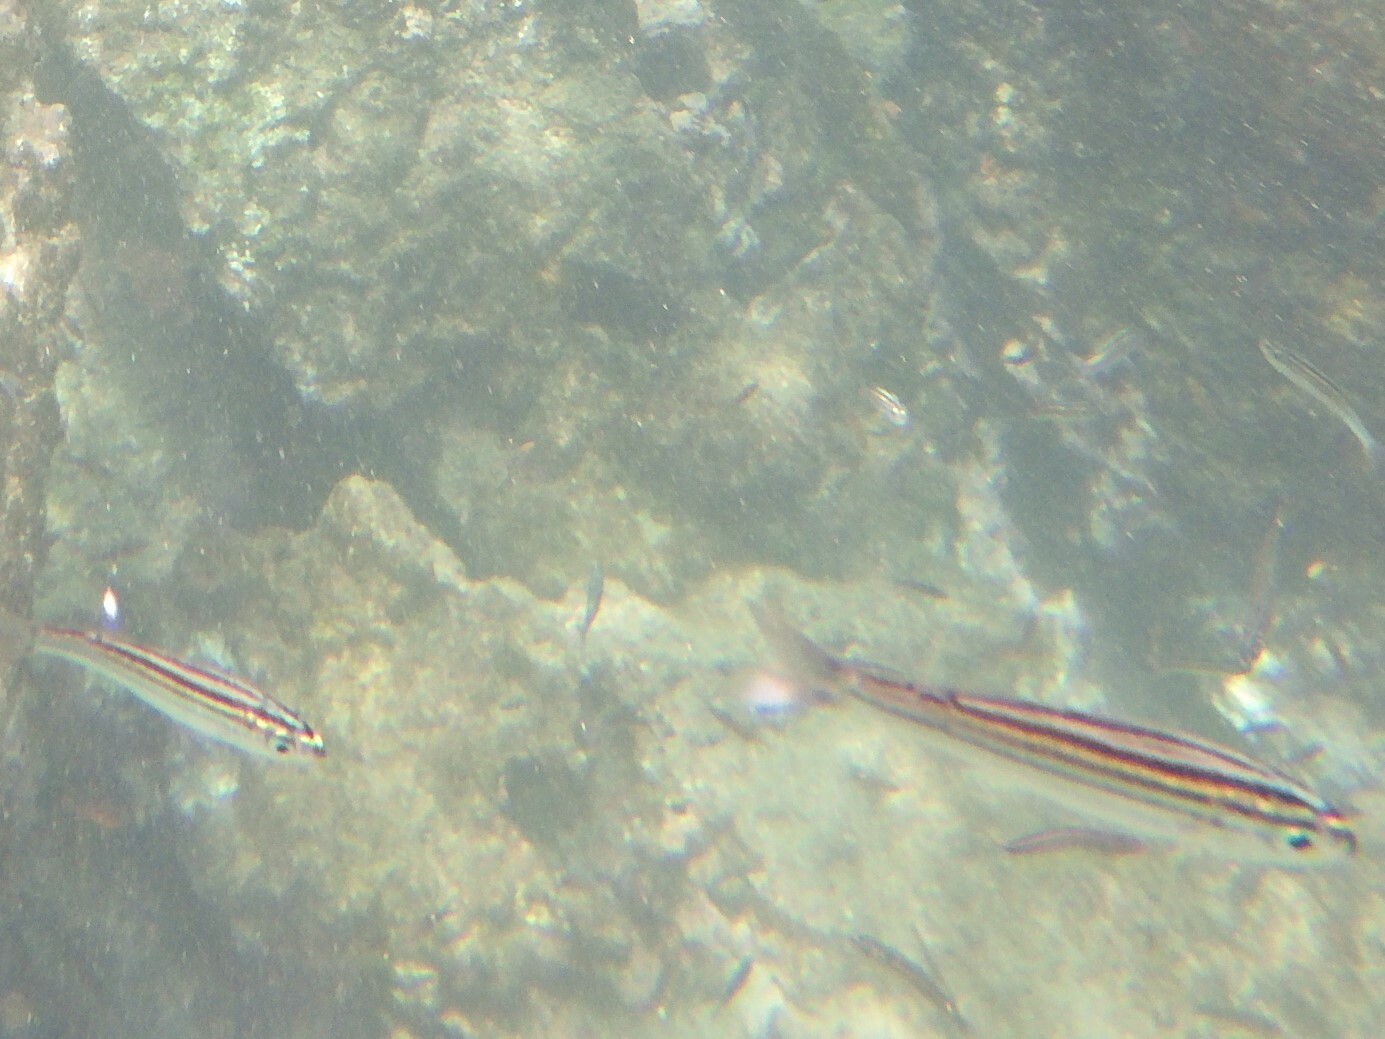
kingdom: Animalia
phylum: Chordata
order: Perciformes
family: Haemulidae
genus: Xenocys
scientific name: Xenocys jessiae
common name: Black-striped salema
